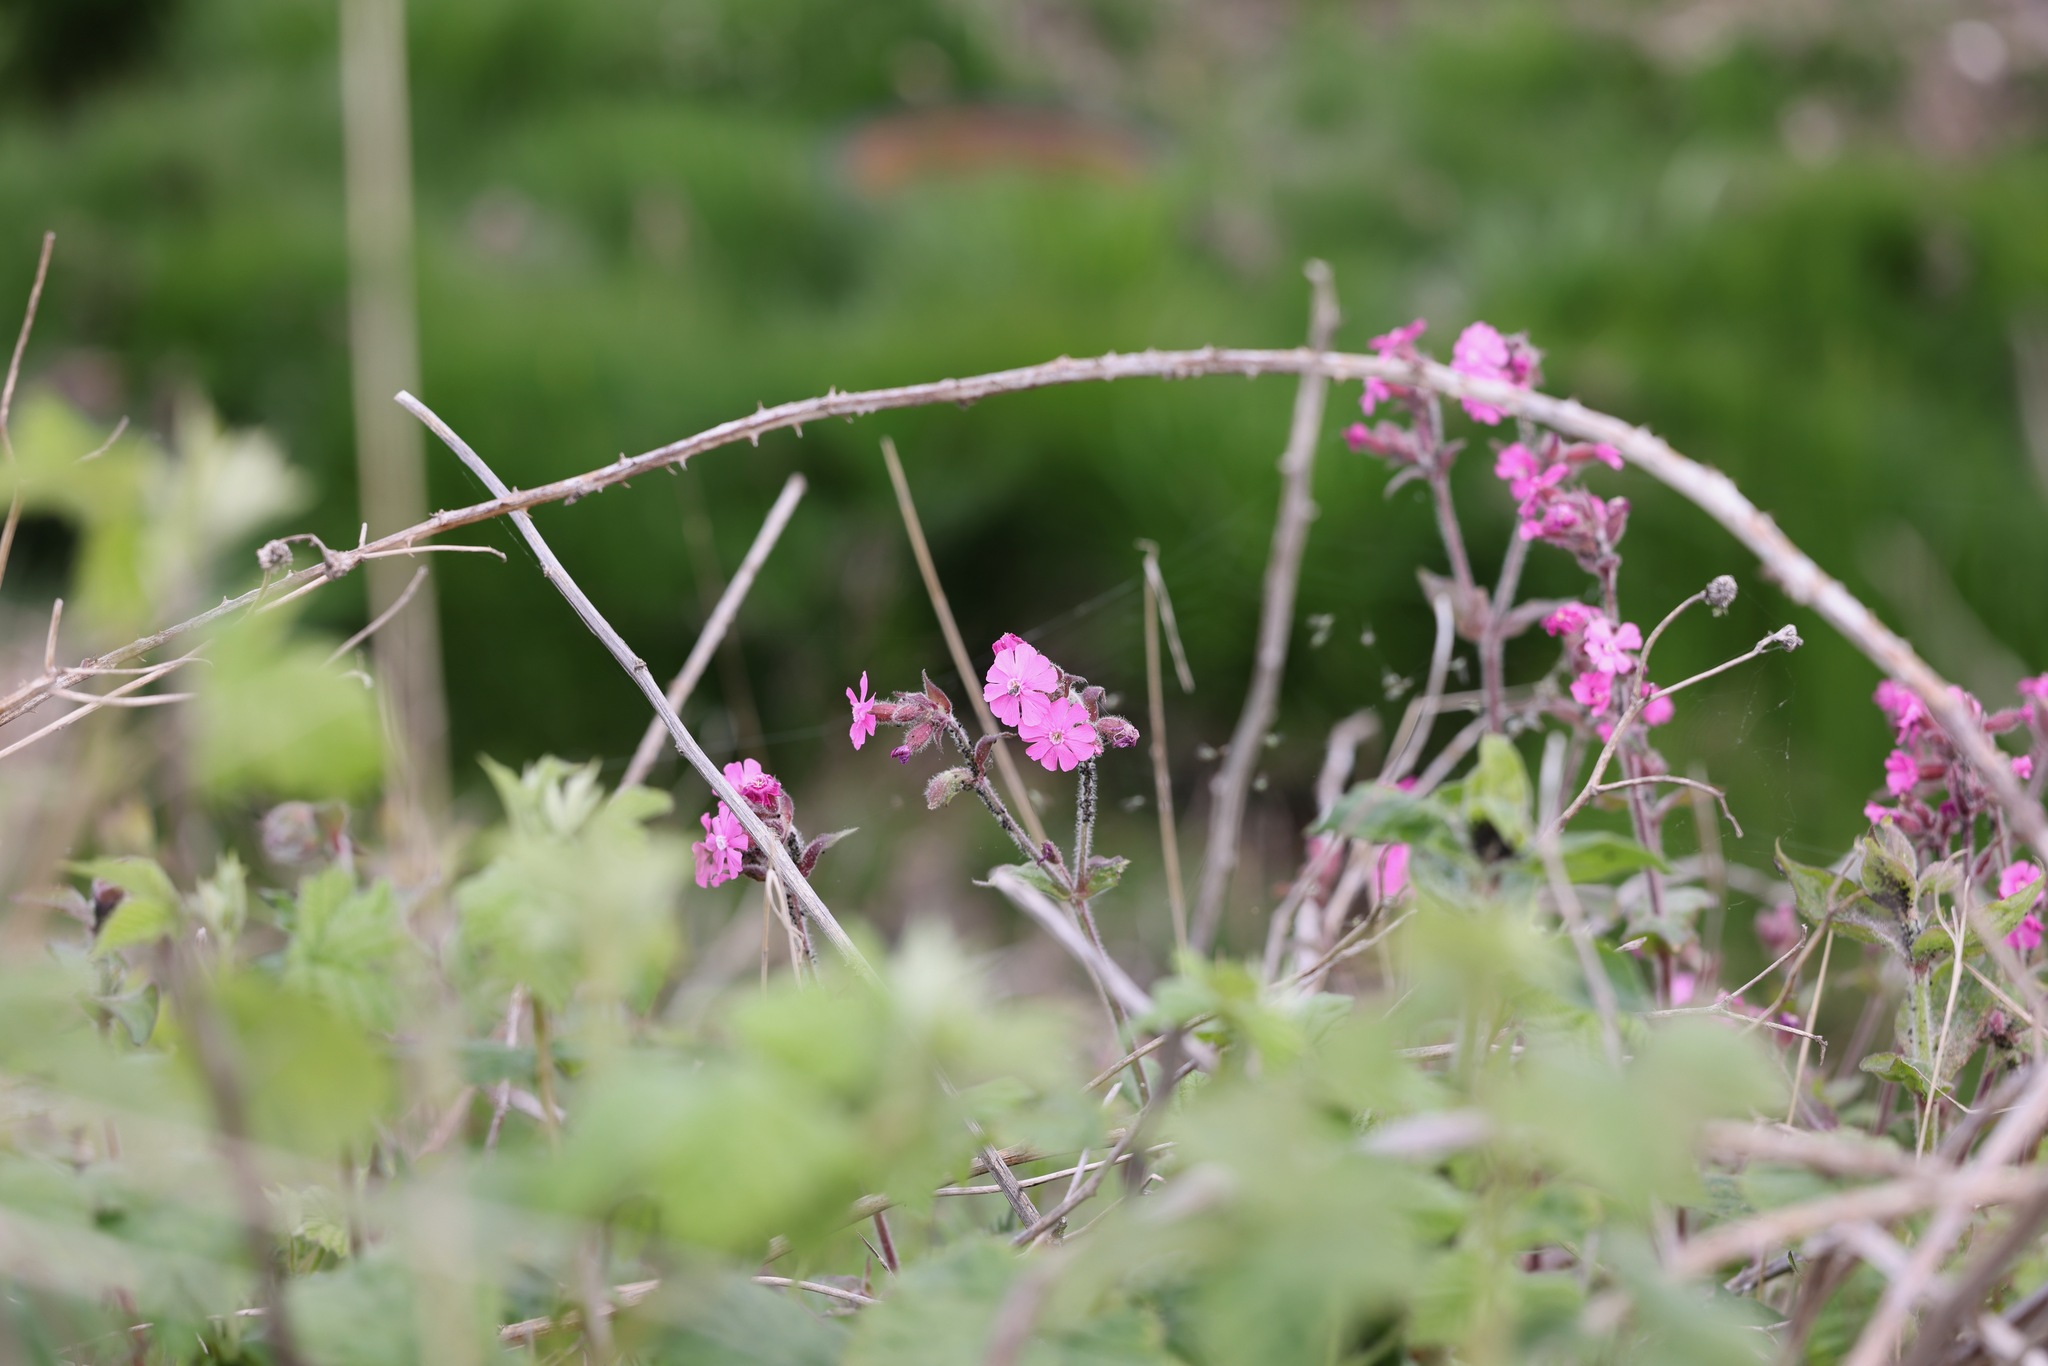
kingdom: Plantae
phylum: Tracheophyta
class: Magnoliopsida
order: Caryophyllales
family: Caryophyllaceae
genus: Silene
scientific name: Silene dioica
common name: Red campion
